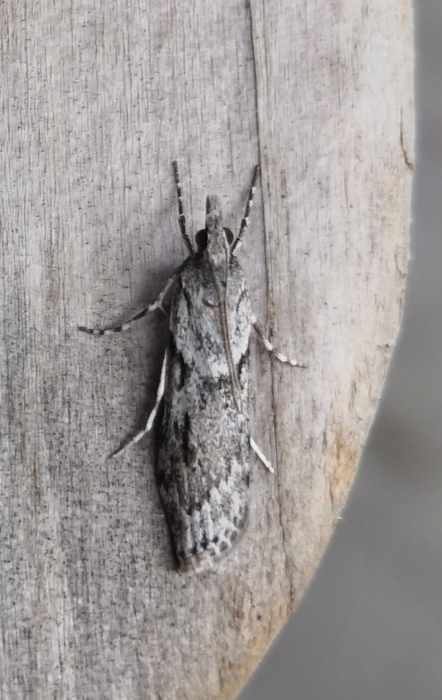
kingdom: Animalia
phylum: Arthropoda
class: Insecta
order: Lepidoptera
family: Crambidae
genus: Scoparia
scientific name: Scoparia halopis
